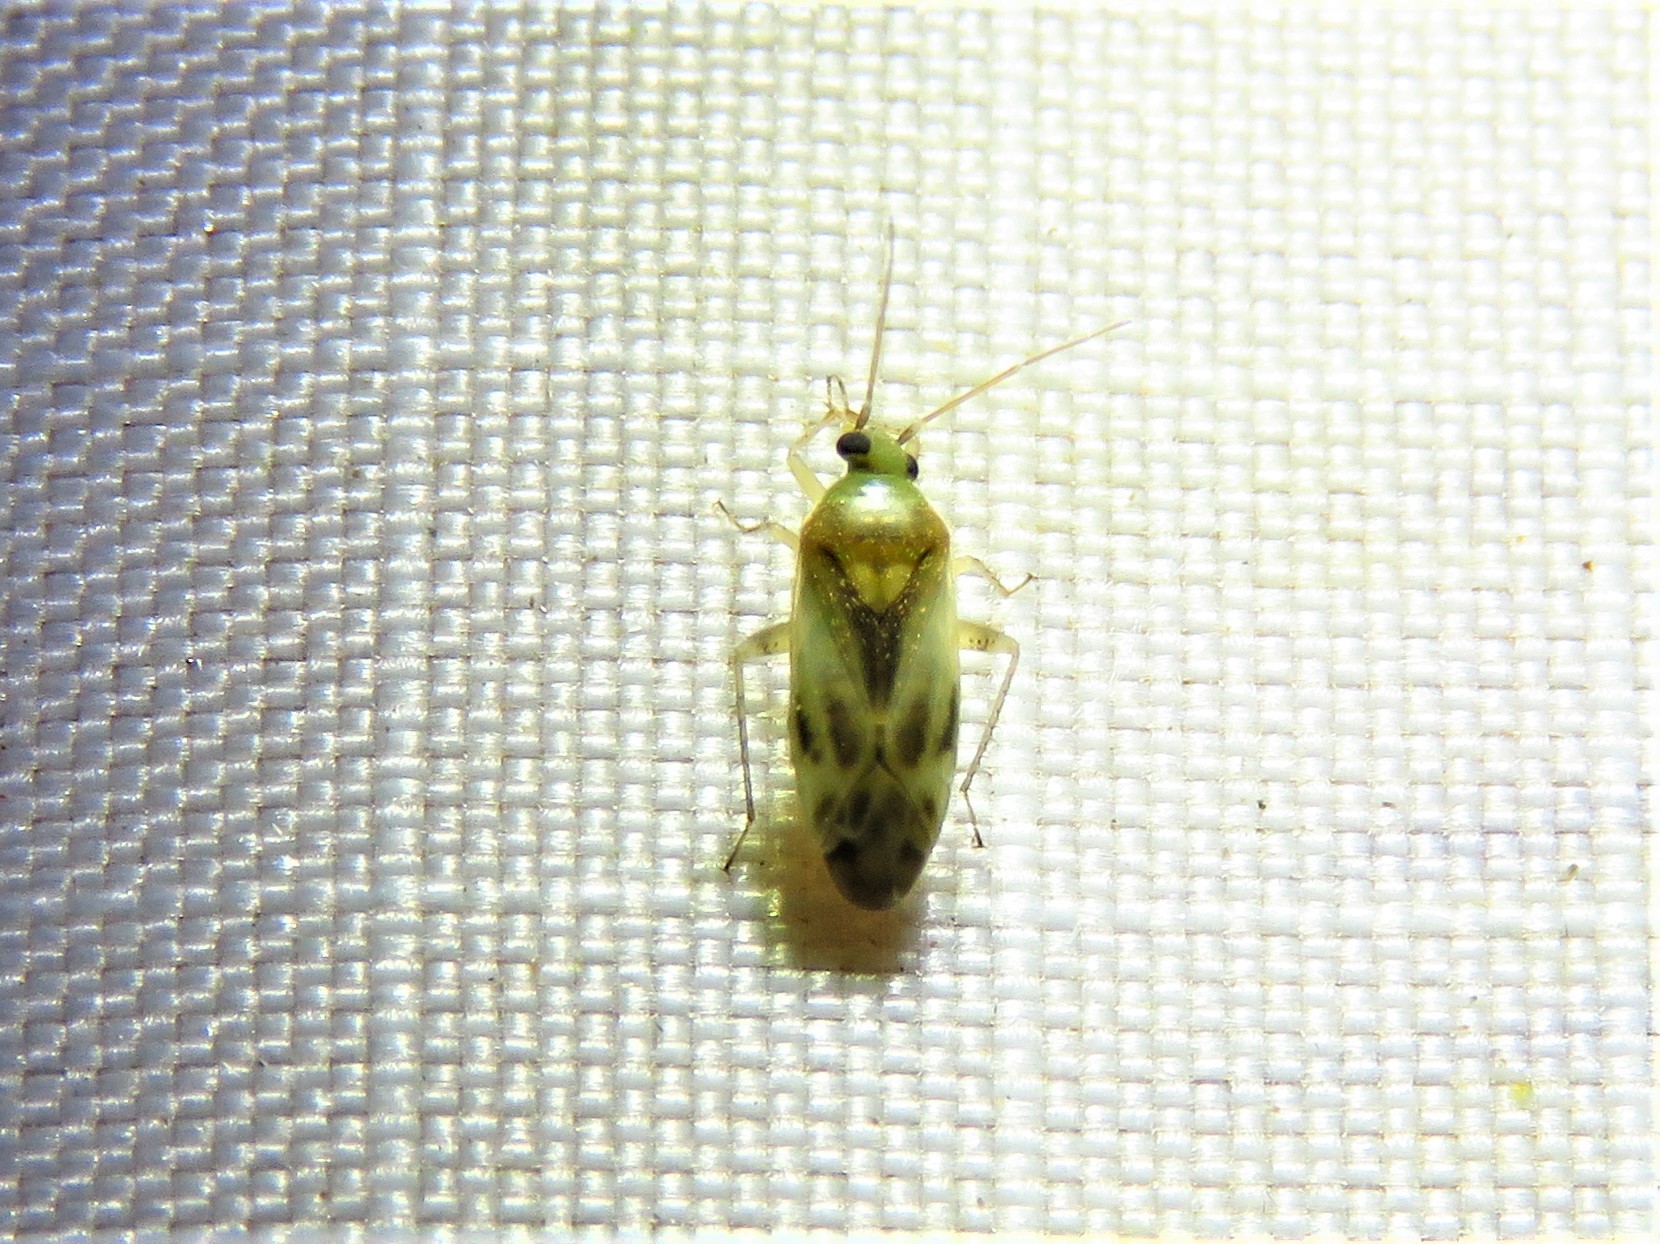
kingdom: Animalia
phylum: Arthropoda
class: Insecta
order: Hemiptera
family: Miridae
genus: Orthotylus
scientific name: Orthotylus ornatus
